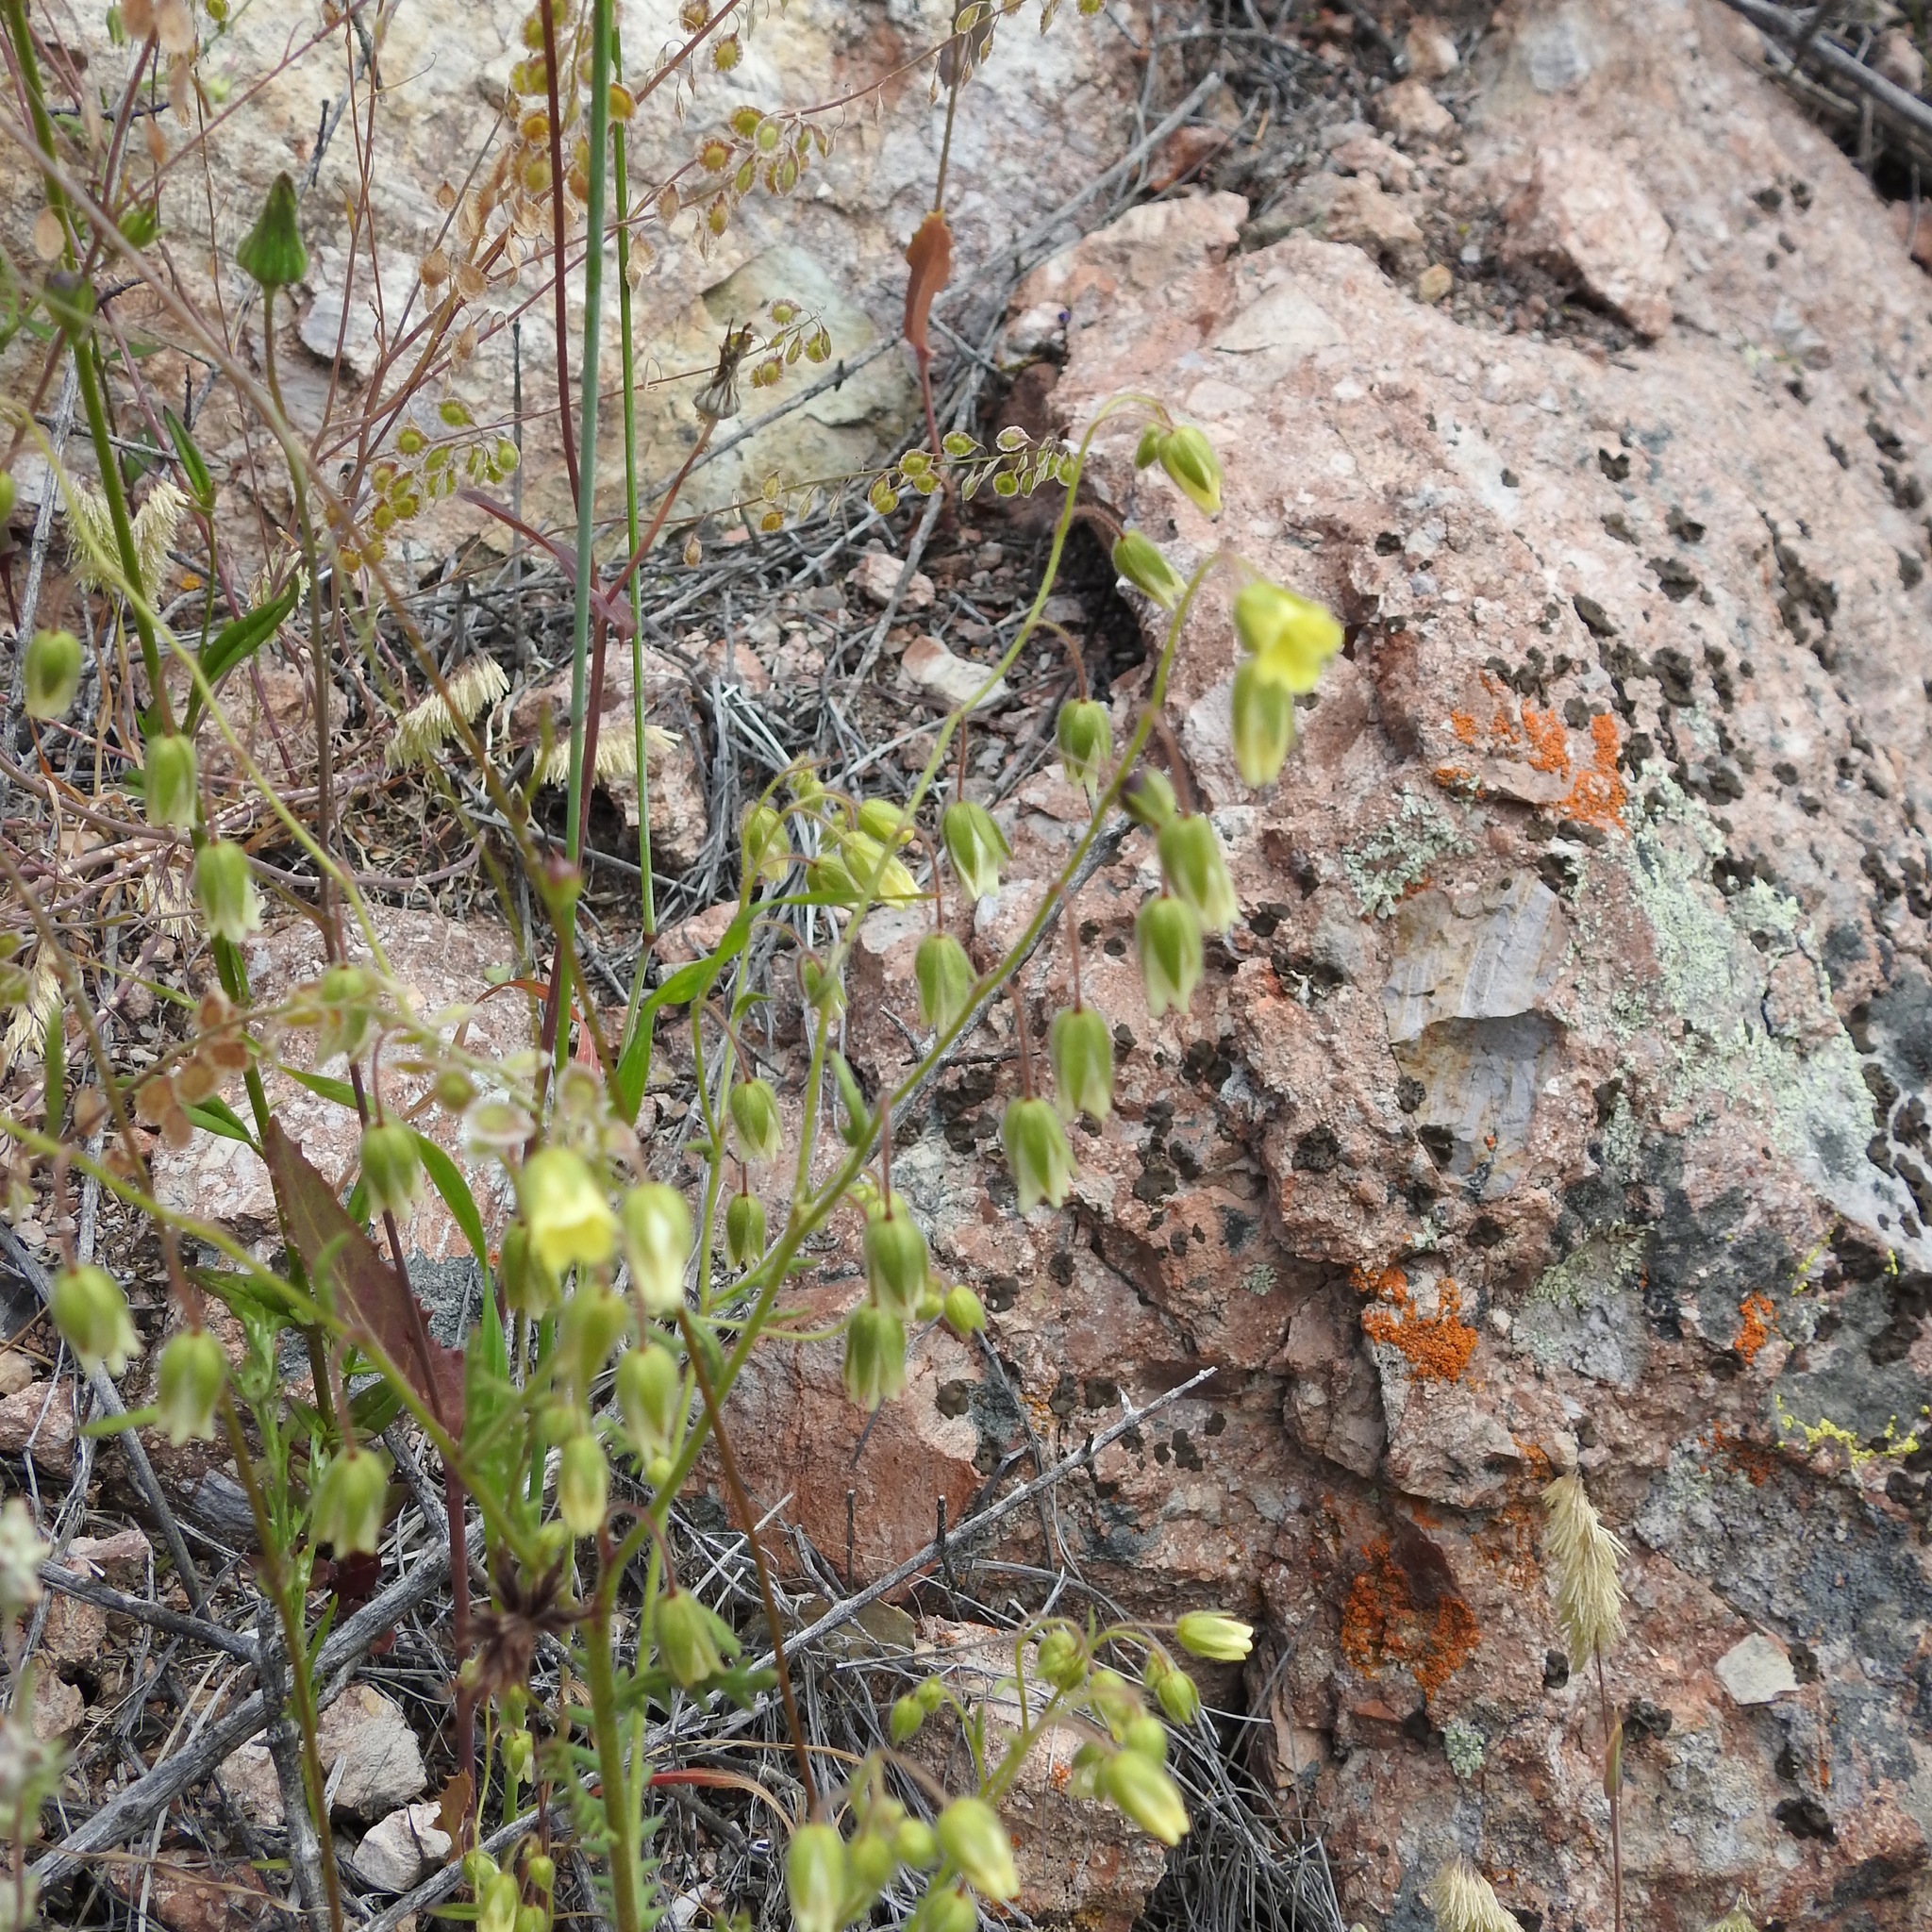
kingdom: Plantae
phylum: Tracheophyta
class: Magnoliopsida
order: Boraginales
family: Hydrophyllaceae
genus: Emmenanthe
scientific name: Emmenanthe penduliflora
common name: Whispering-bells
